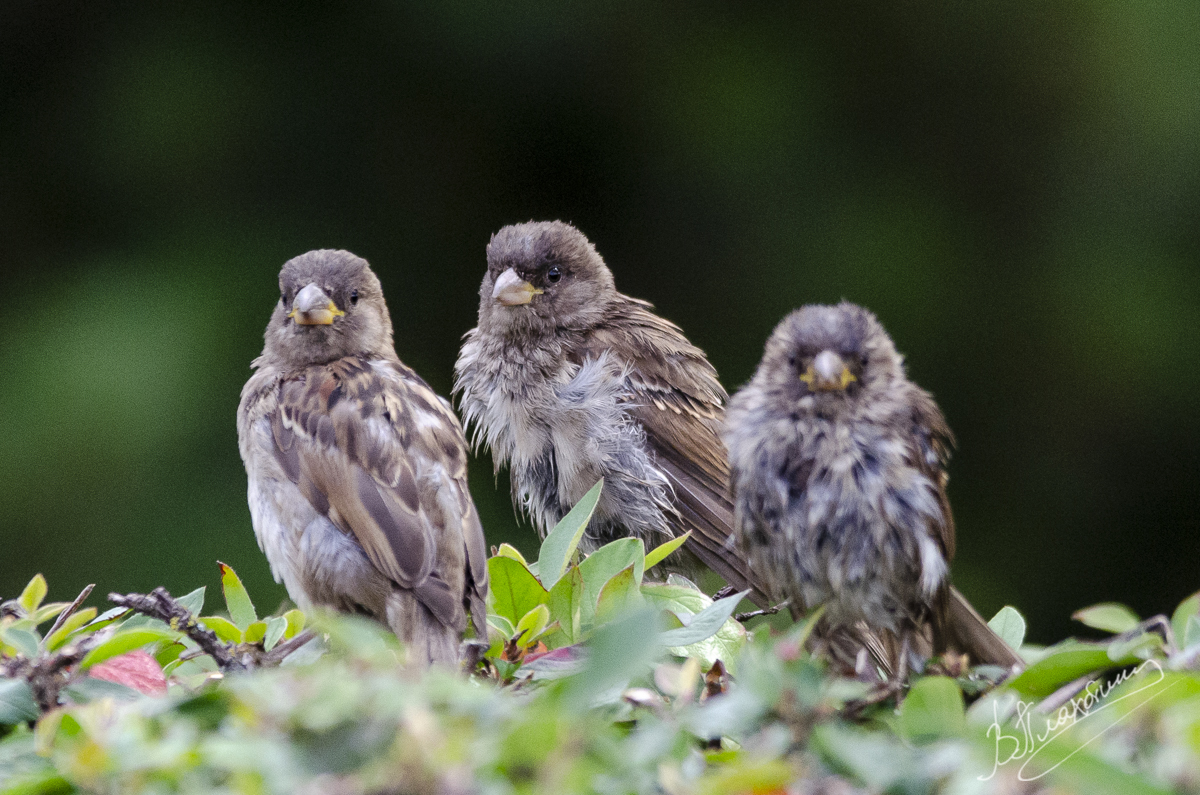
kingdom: Animalia
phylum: Chordata
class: Aves
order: Passeriformes
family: Passeridae
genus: Passer
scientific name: Passer domesticus
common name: House sparrow
